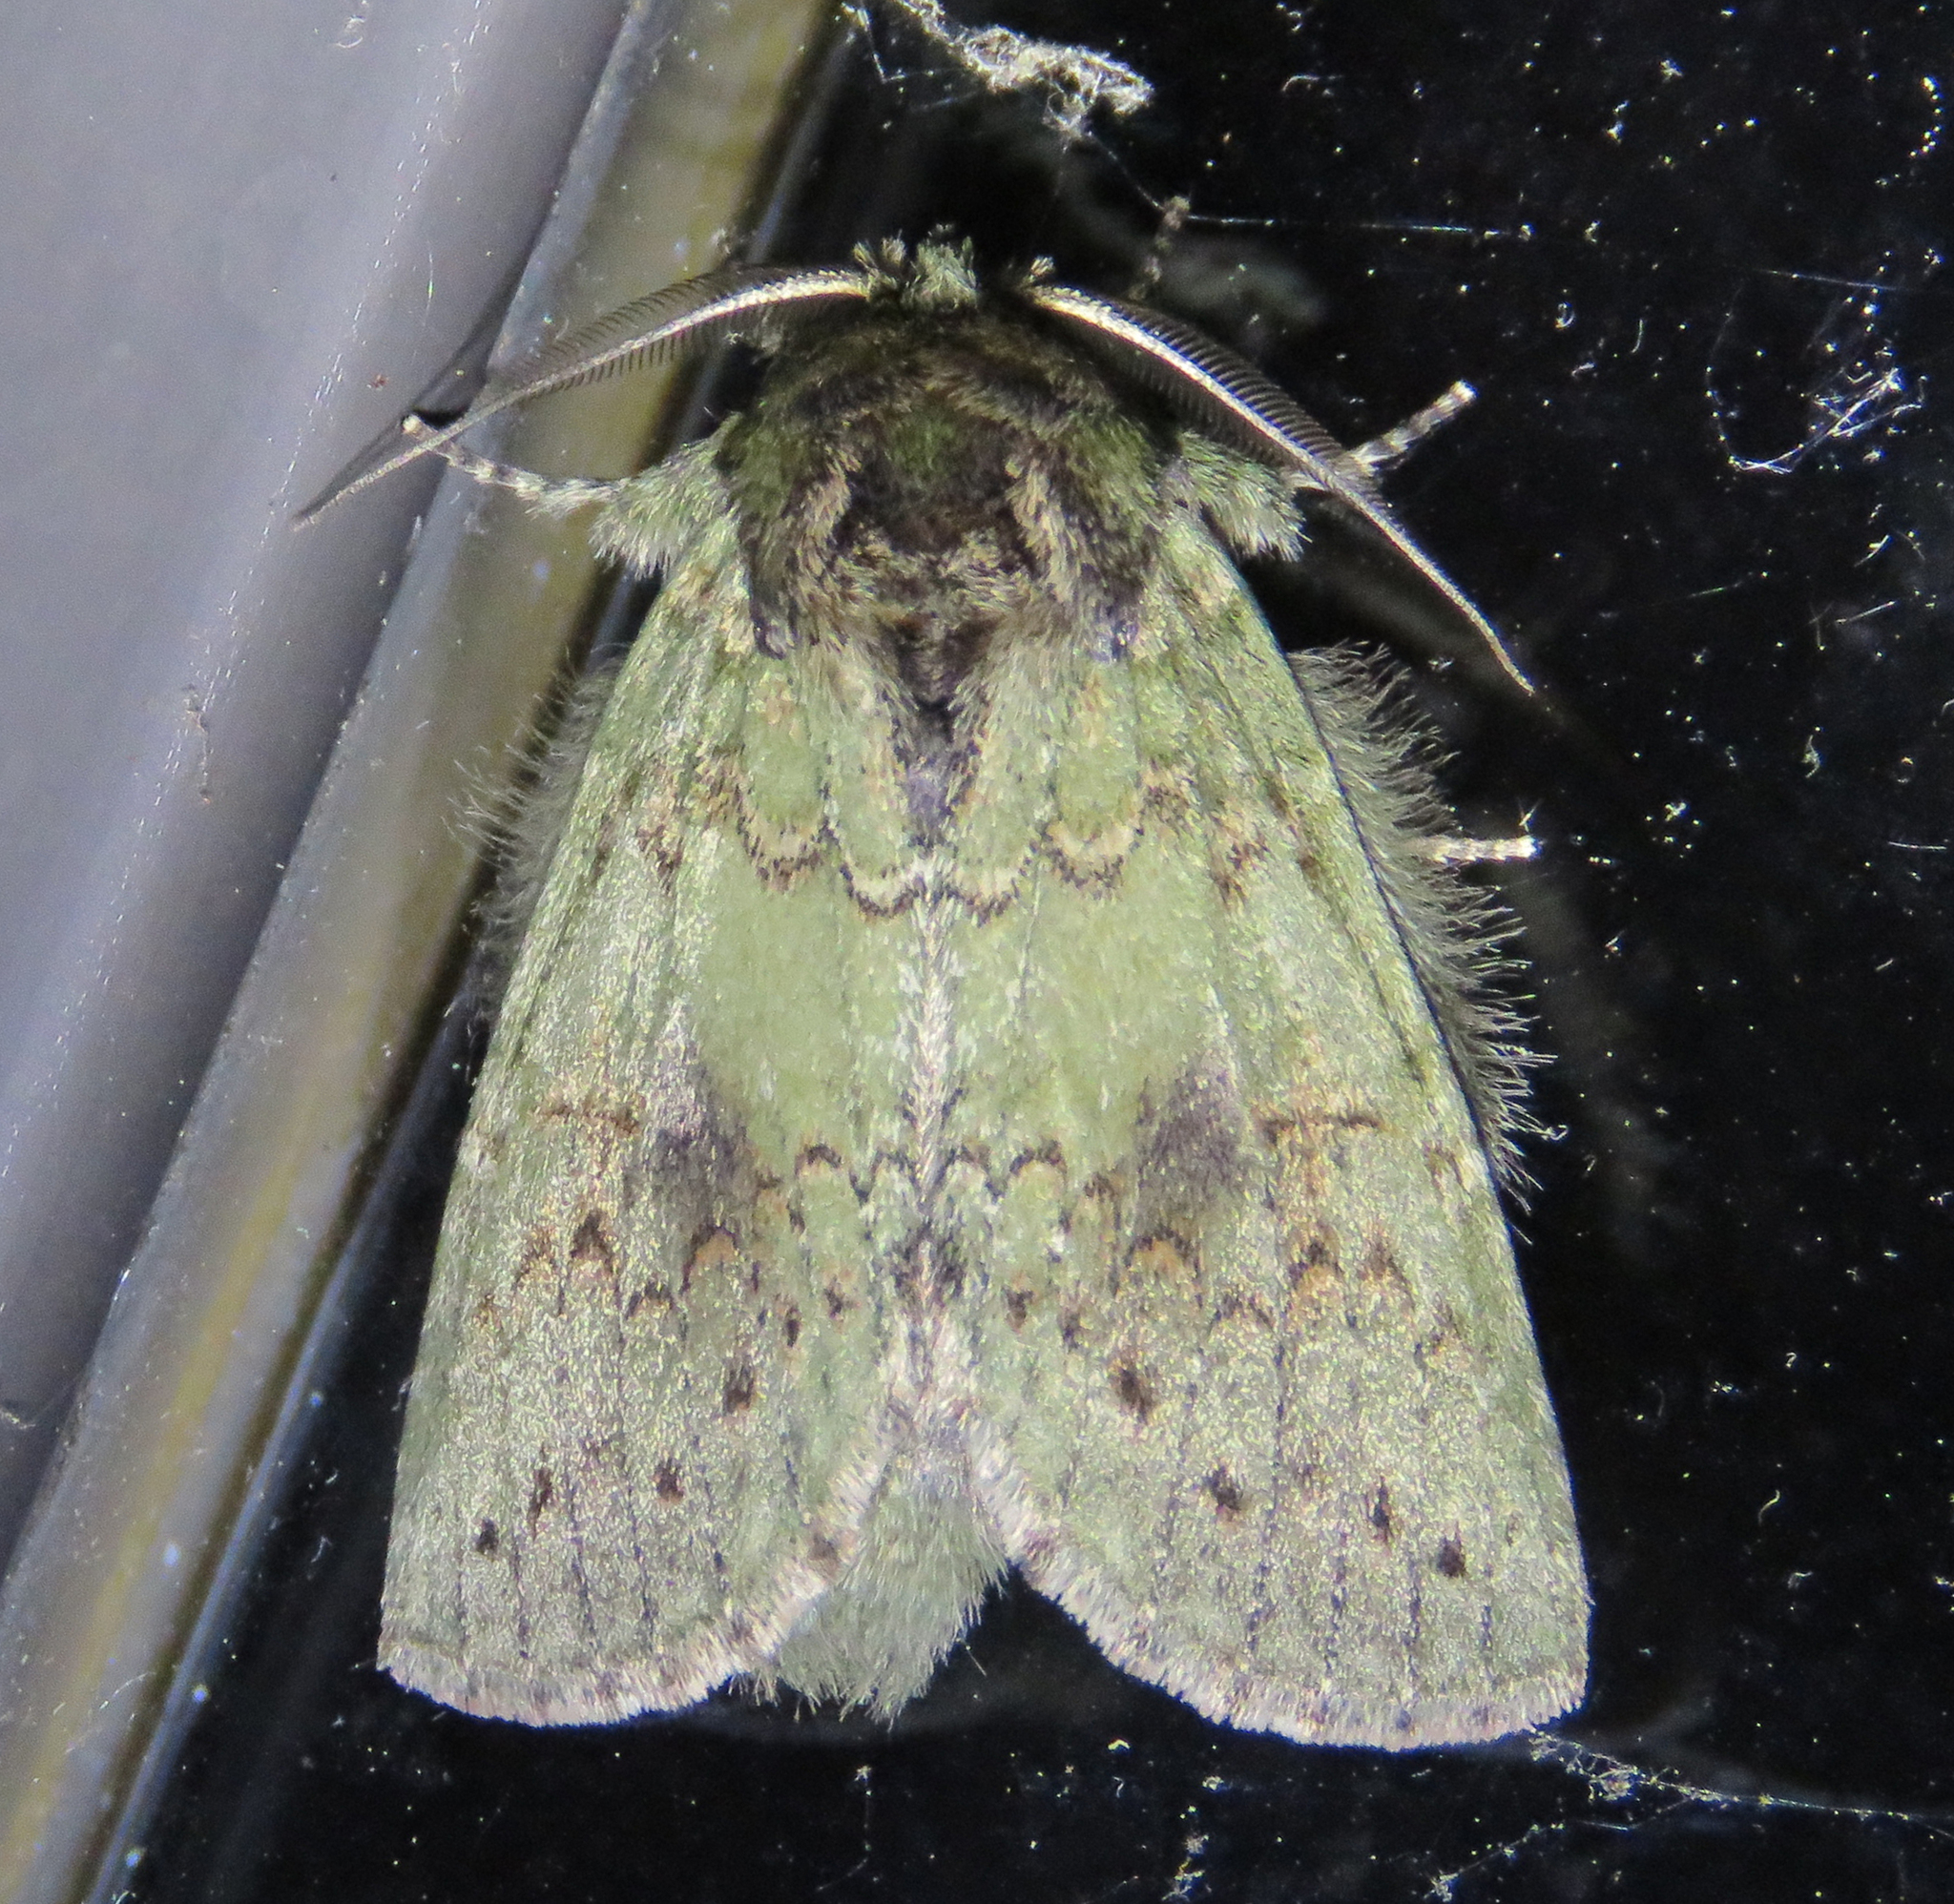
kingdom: Animalia
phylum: Arthropoda
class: Insecta
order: Lepidoptera
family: Notodontidae
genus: Disphragis
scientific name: Disphragis Cecrita biundata
